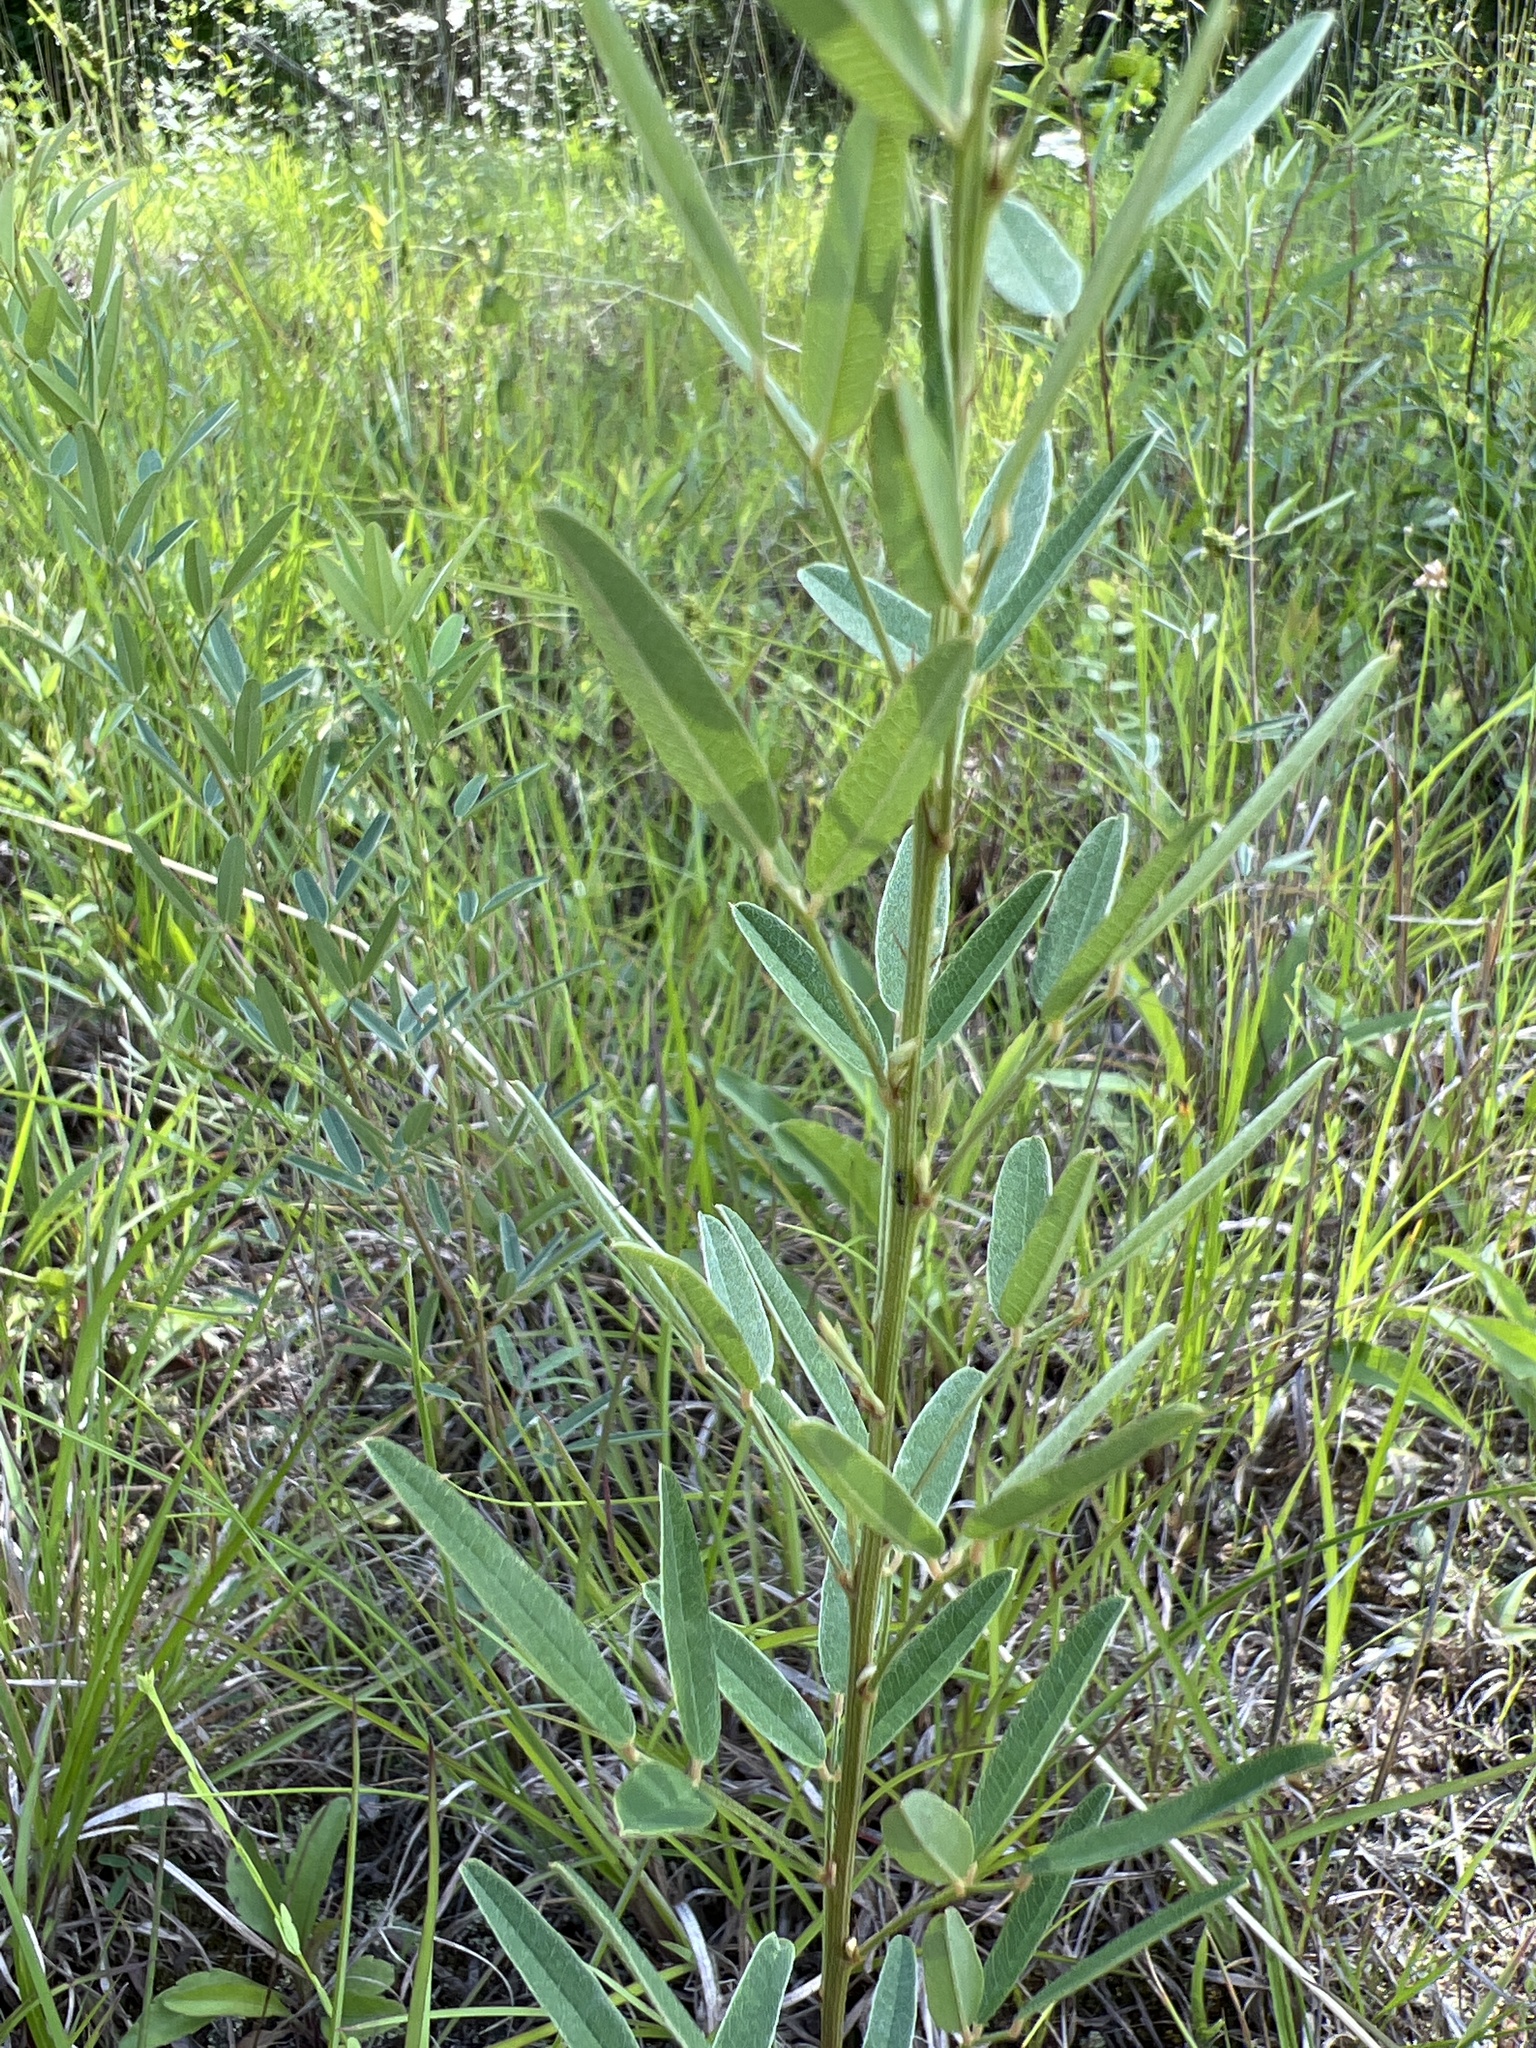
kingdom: Plantae
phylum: Tracheophyta
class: Magnoliopsida
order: Fabales
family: Fabaceae
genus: Lespedeza
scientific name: Lespedeza virginica
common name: Slender bush-clover
